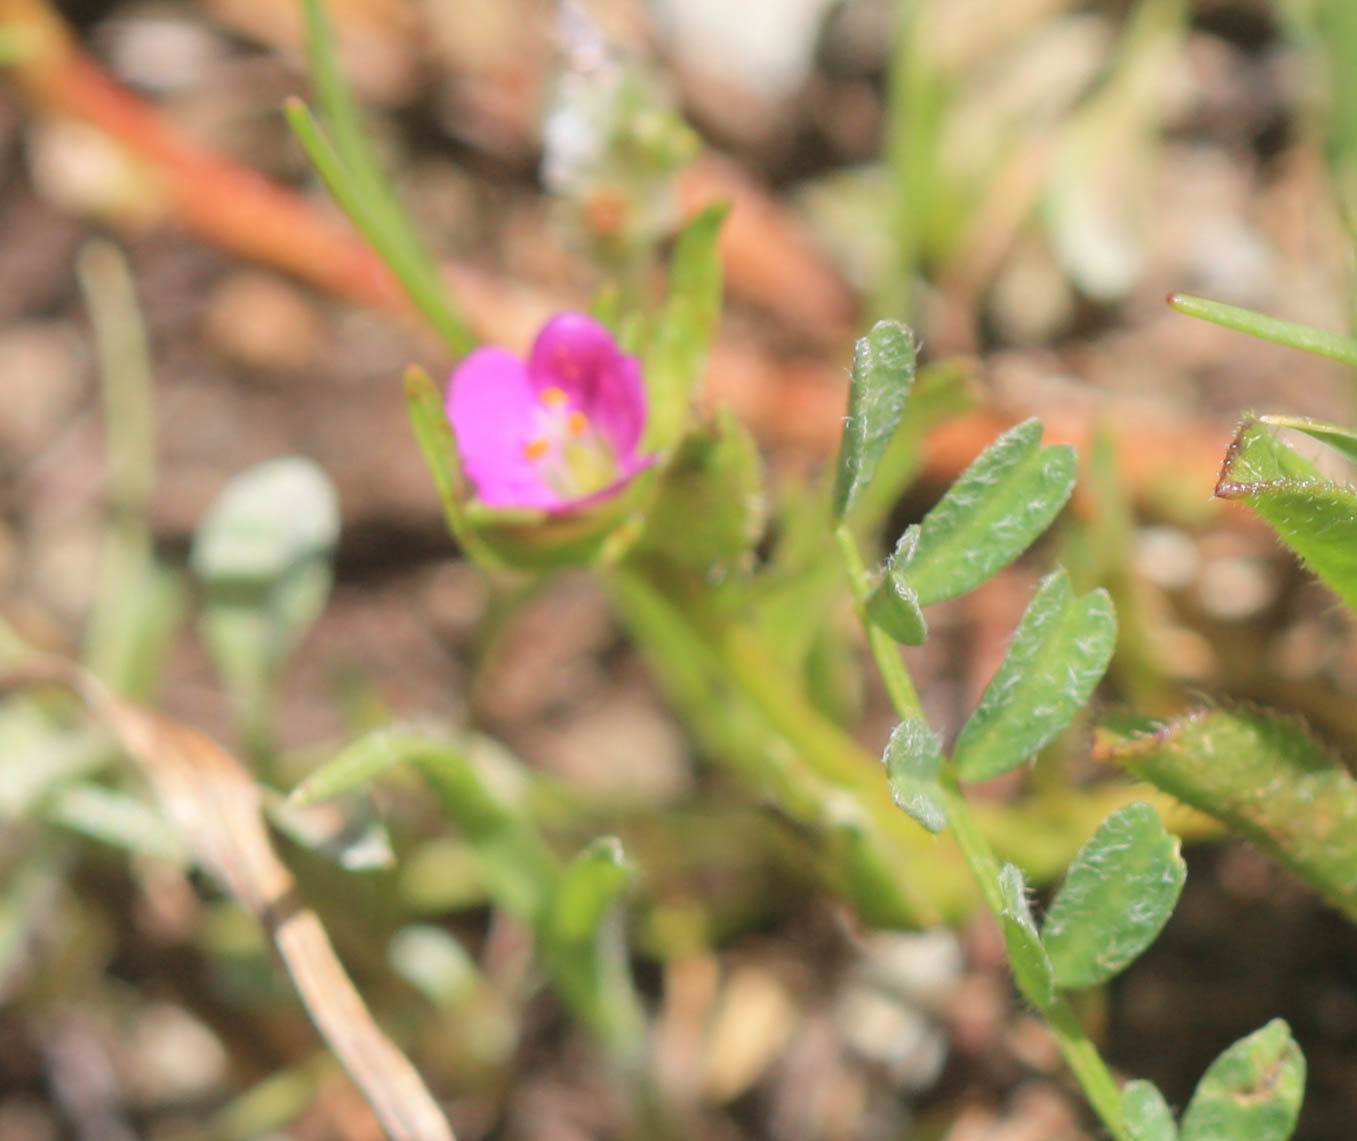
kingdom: Plantae
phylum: Tracheophyta
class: Magnoliopsida
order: Caryophyllales
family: Montiaceae
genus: Calandrinia
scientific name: Calandrinia menziesii
